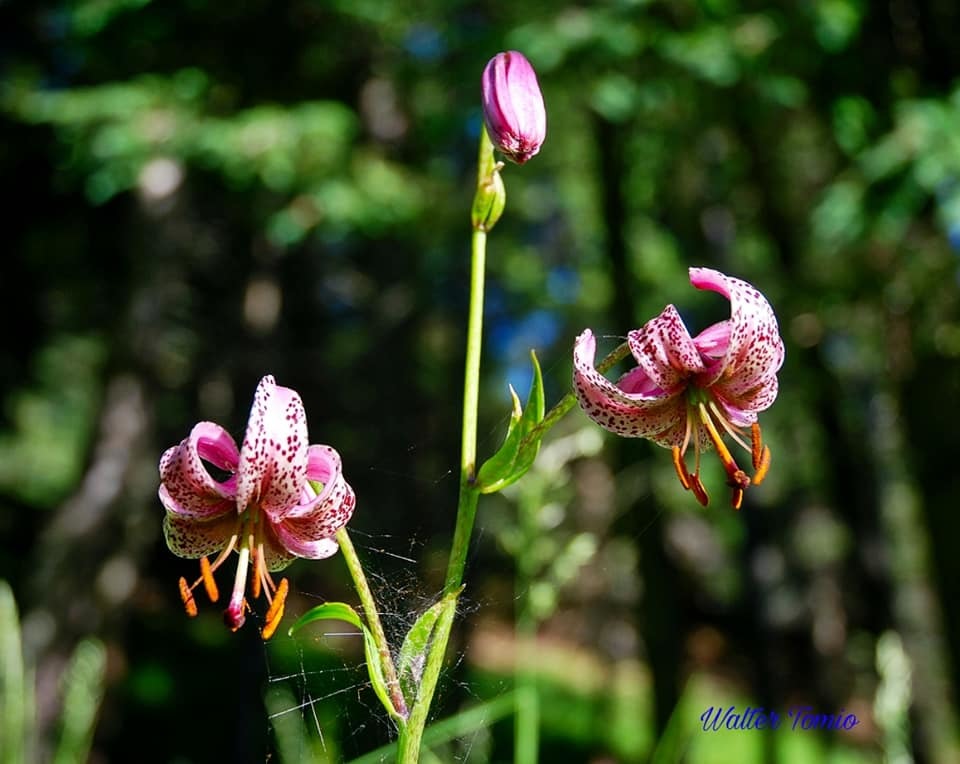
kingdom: Plantae
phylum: Tracheophyta
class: Liliopsida
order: Liliales
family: Liliaceae
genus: Lilium
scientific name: Lilium martagon
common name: Martagon lily
